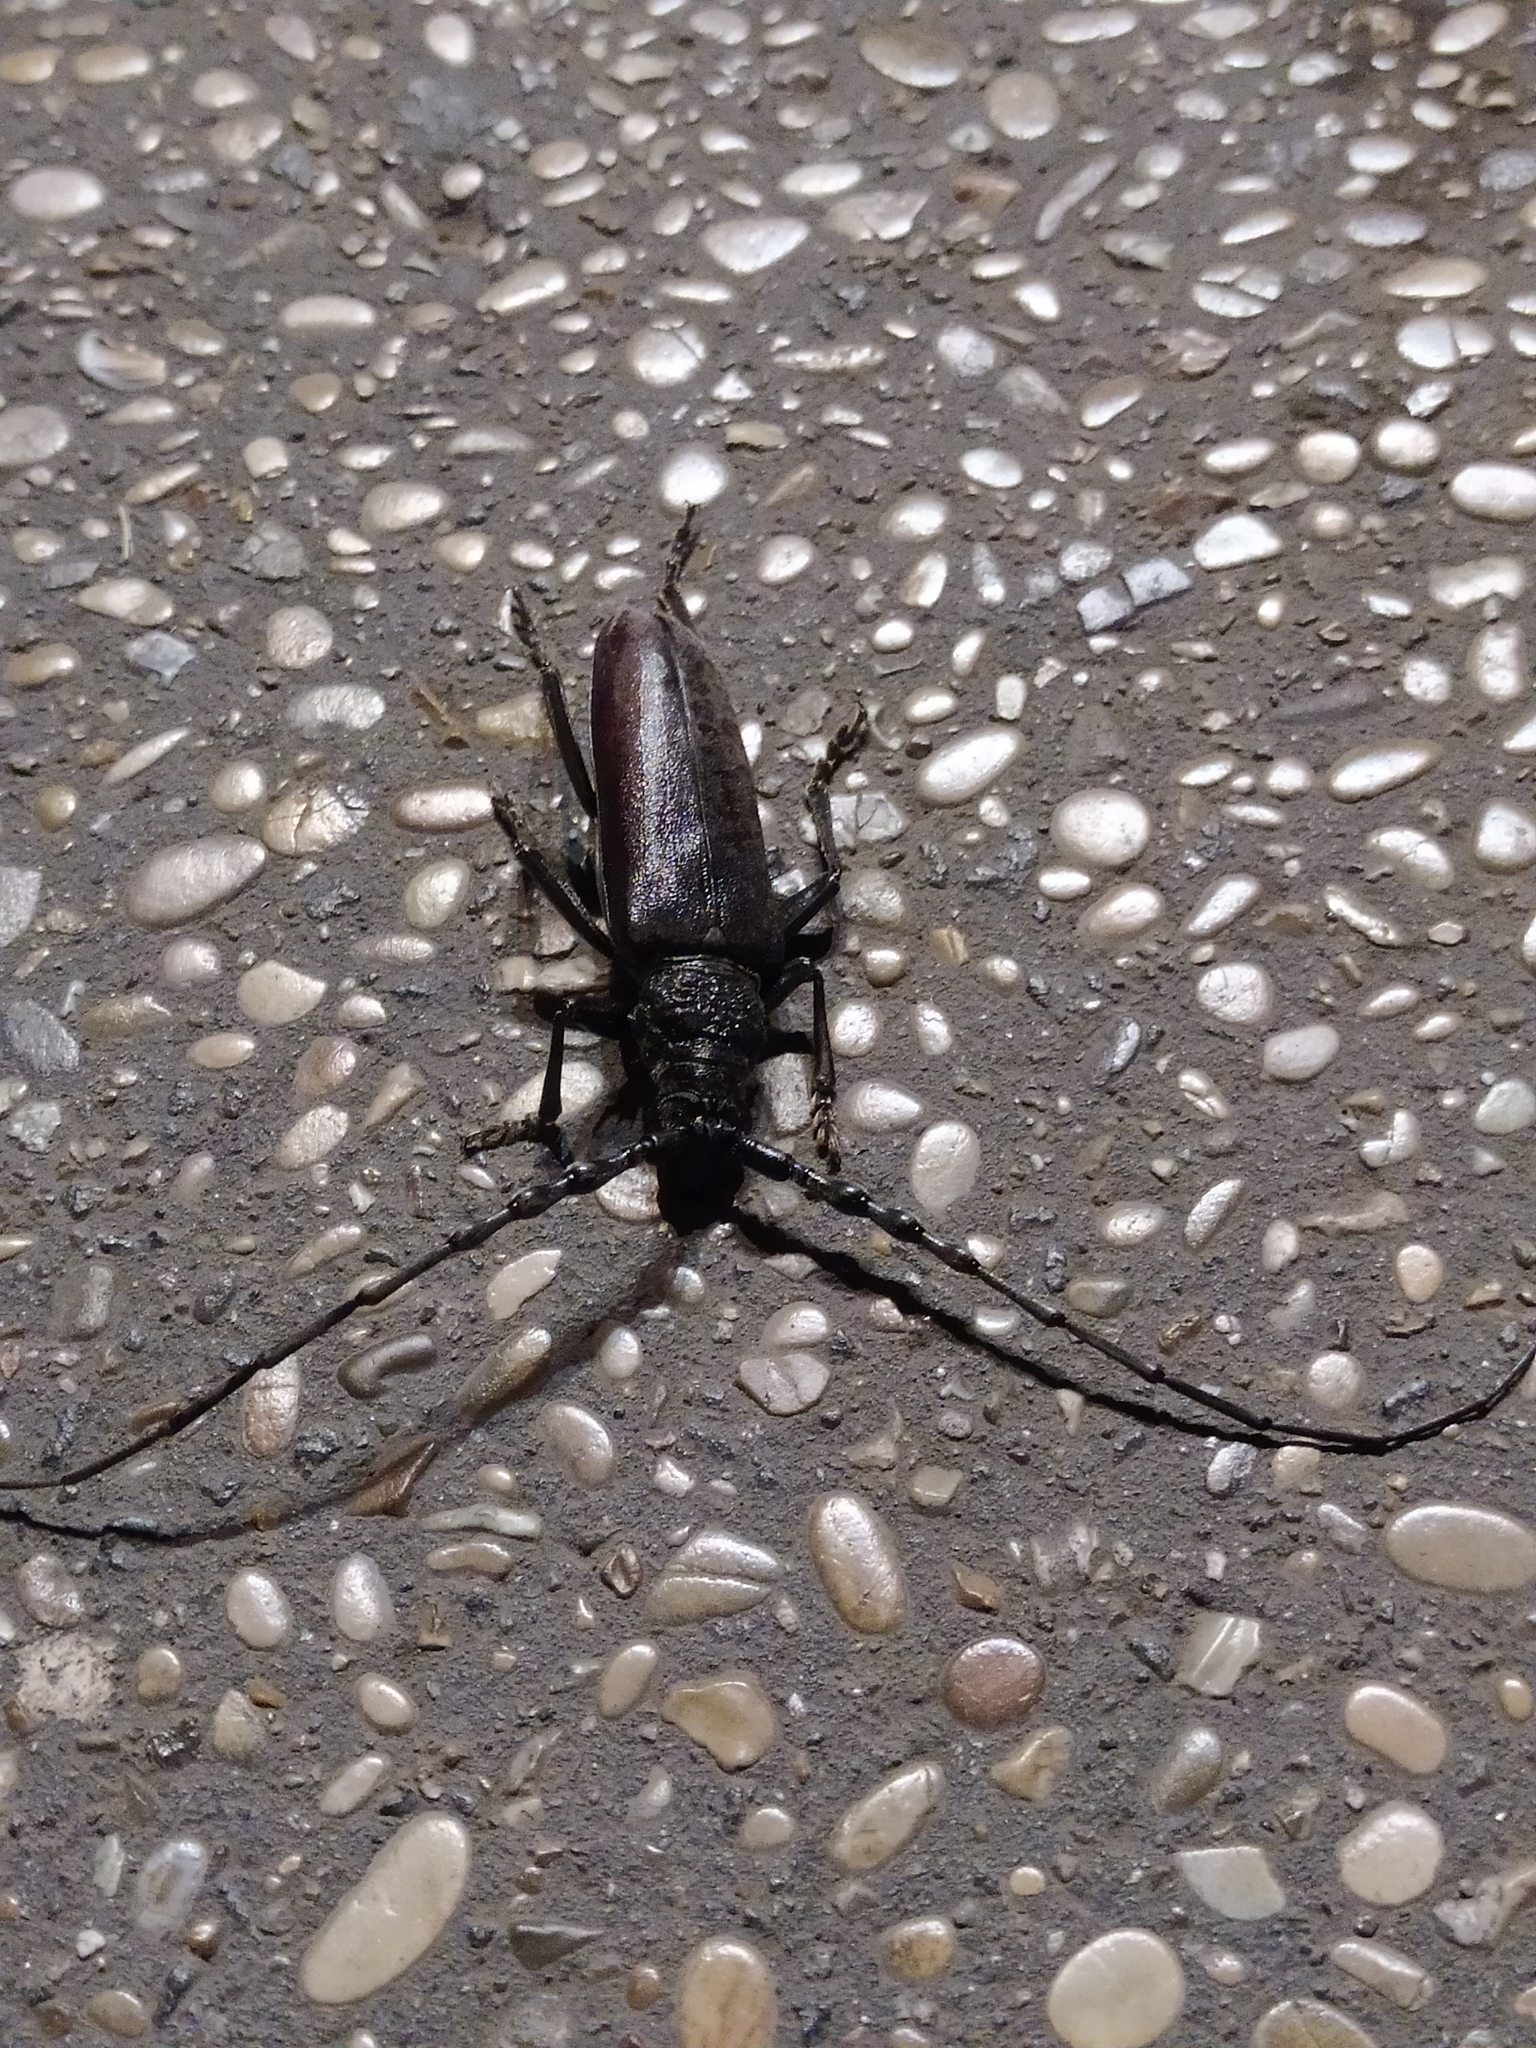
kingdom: Animalia
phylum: Arthropoda
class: Insecta
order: Coleoptera
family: Cerambycidae
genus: Cerambyx
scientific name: Cerambyx welensii
